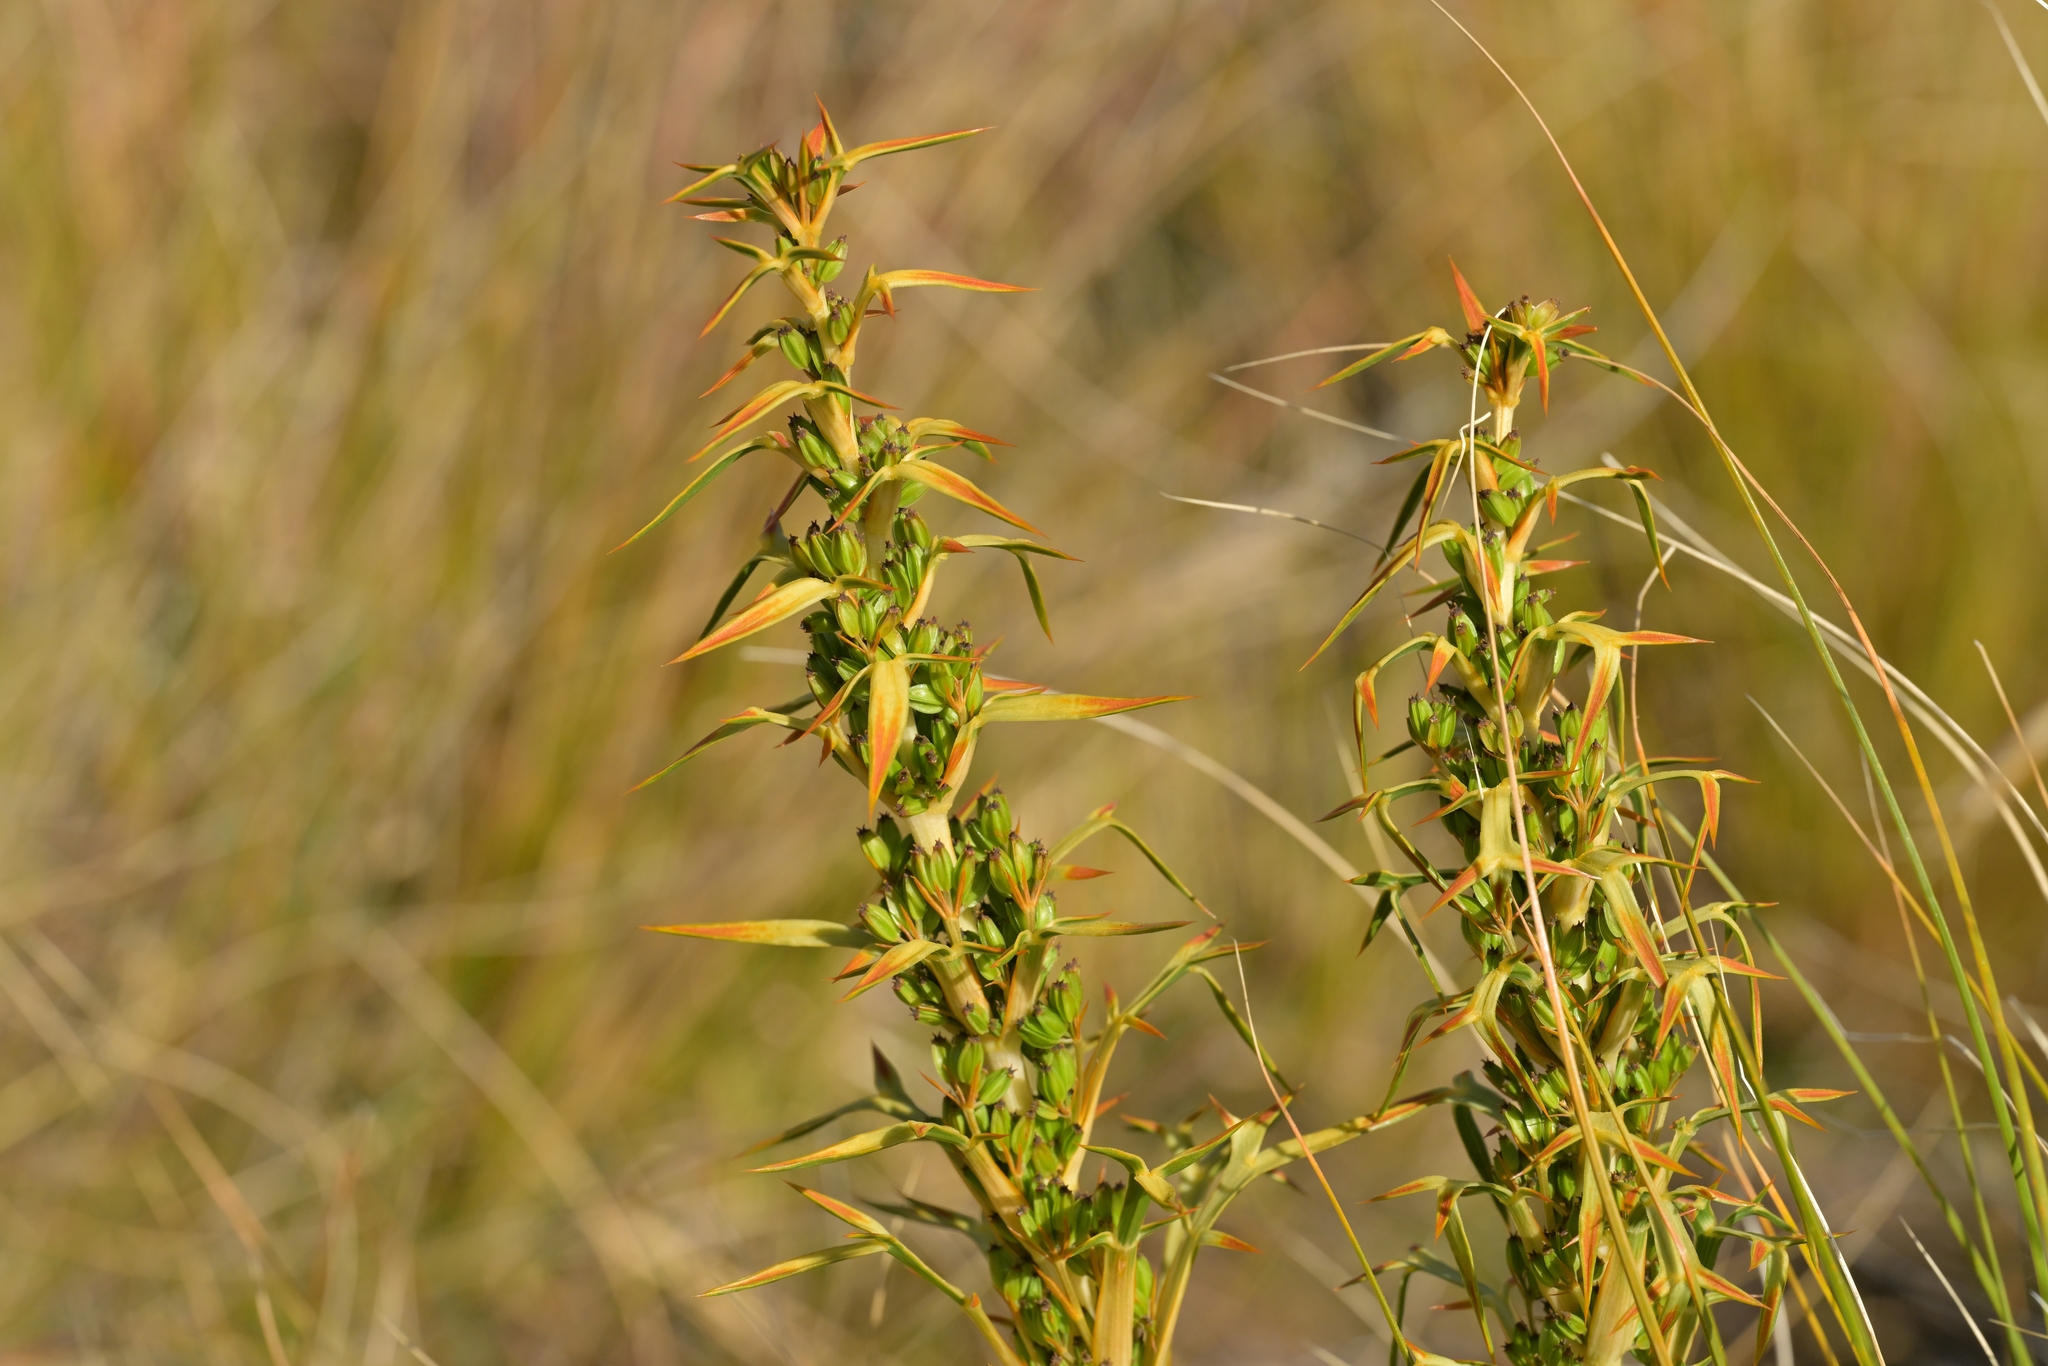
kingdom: Plantae
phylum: Tracheophyta
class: Magnoliopsida
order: Apiales
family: Apiaceae
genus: Aciphylla
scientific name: Aciphylla hookeri
